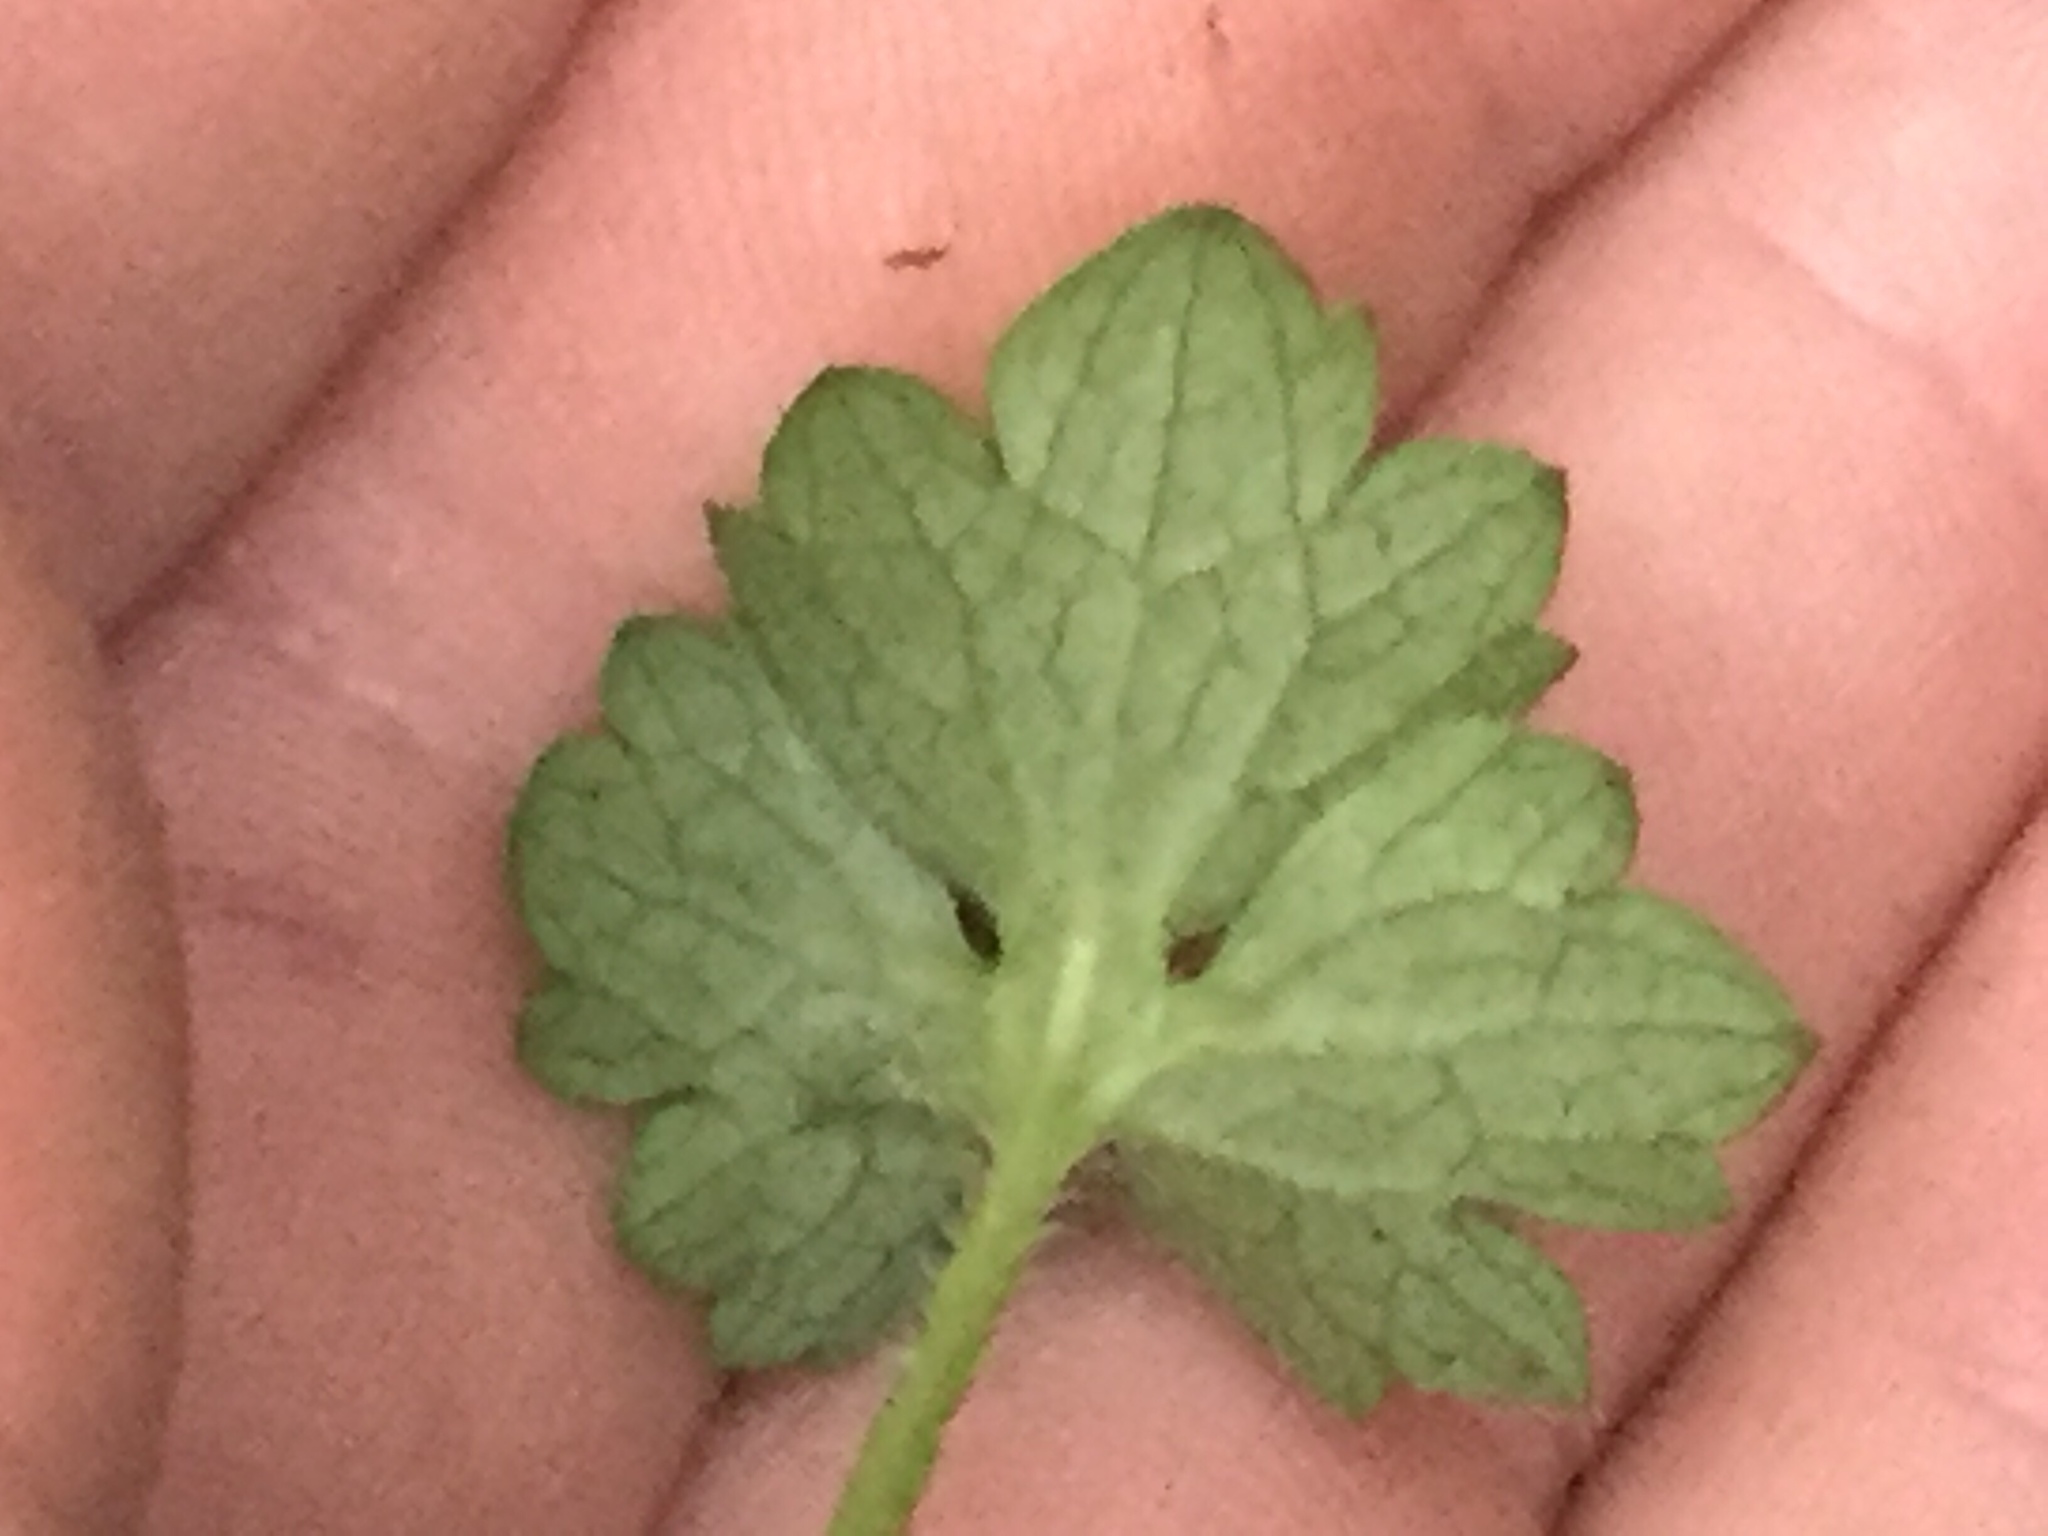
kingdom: Plantae
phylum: Tracheophyta
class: Magnoliopsida
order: Ranunculales
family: Ranunculaceae
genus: Ranunculus
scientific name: Ranunculus repens
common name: Creeping buttercup
